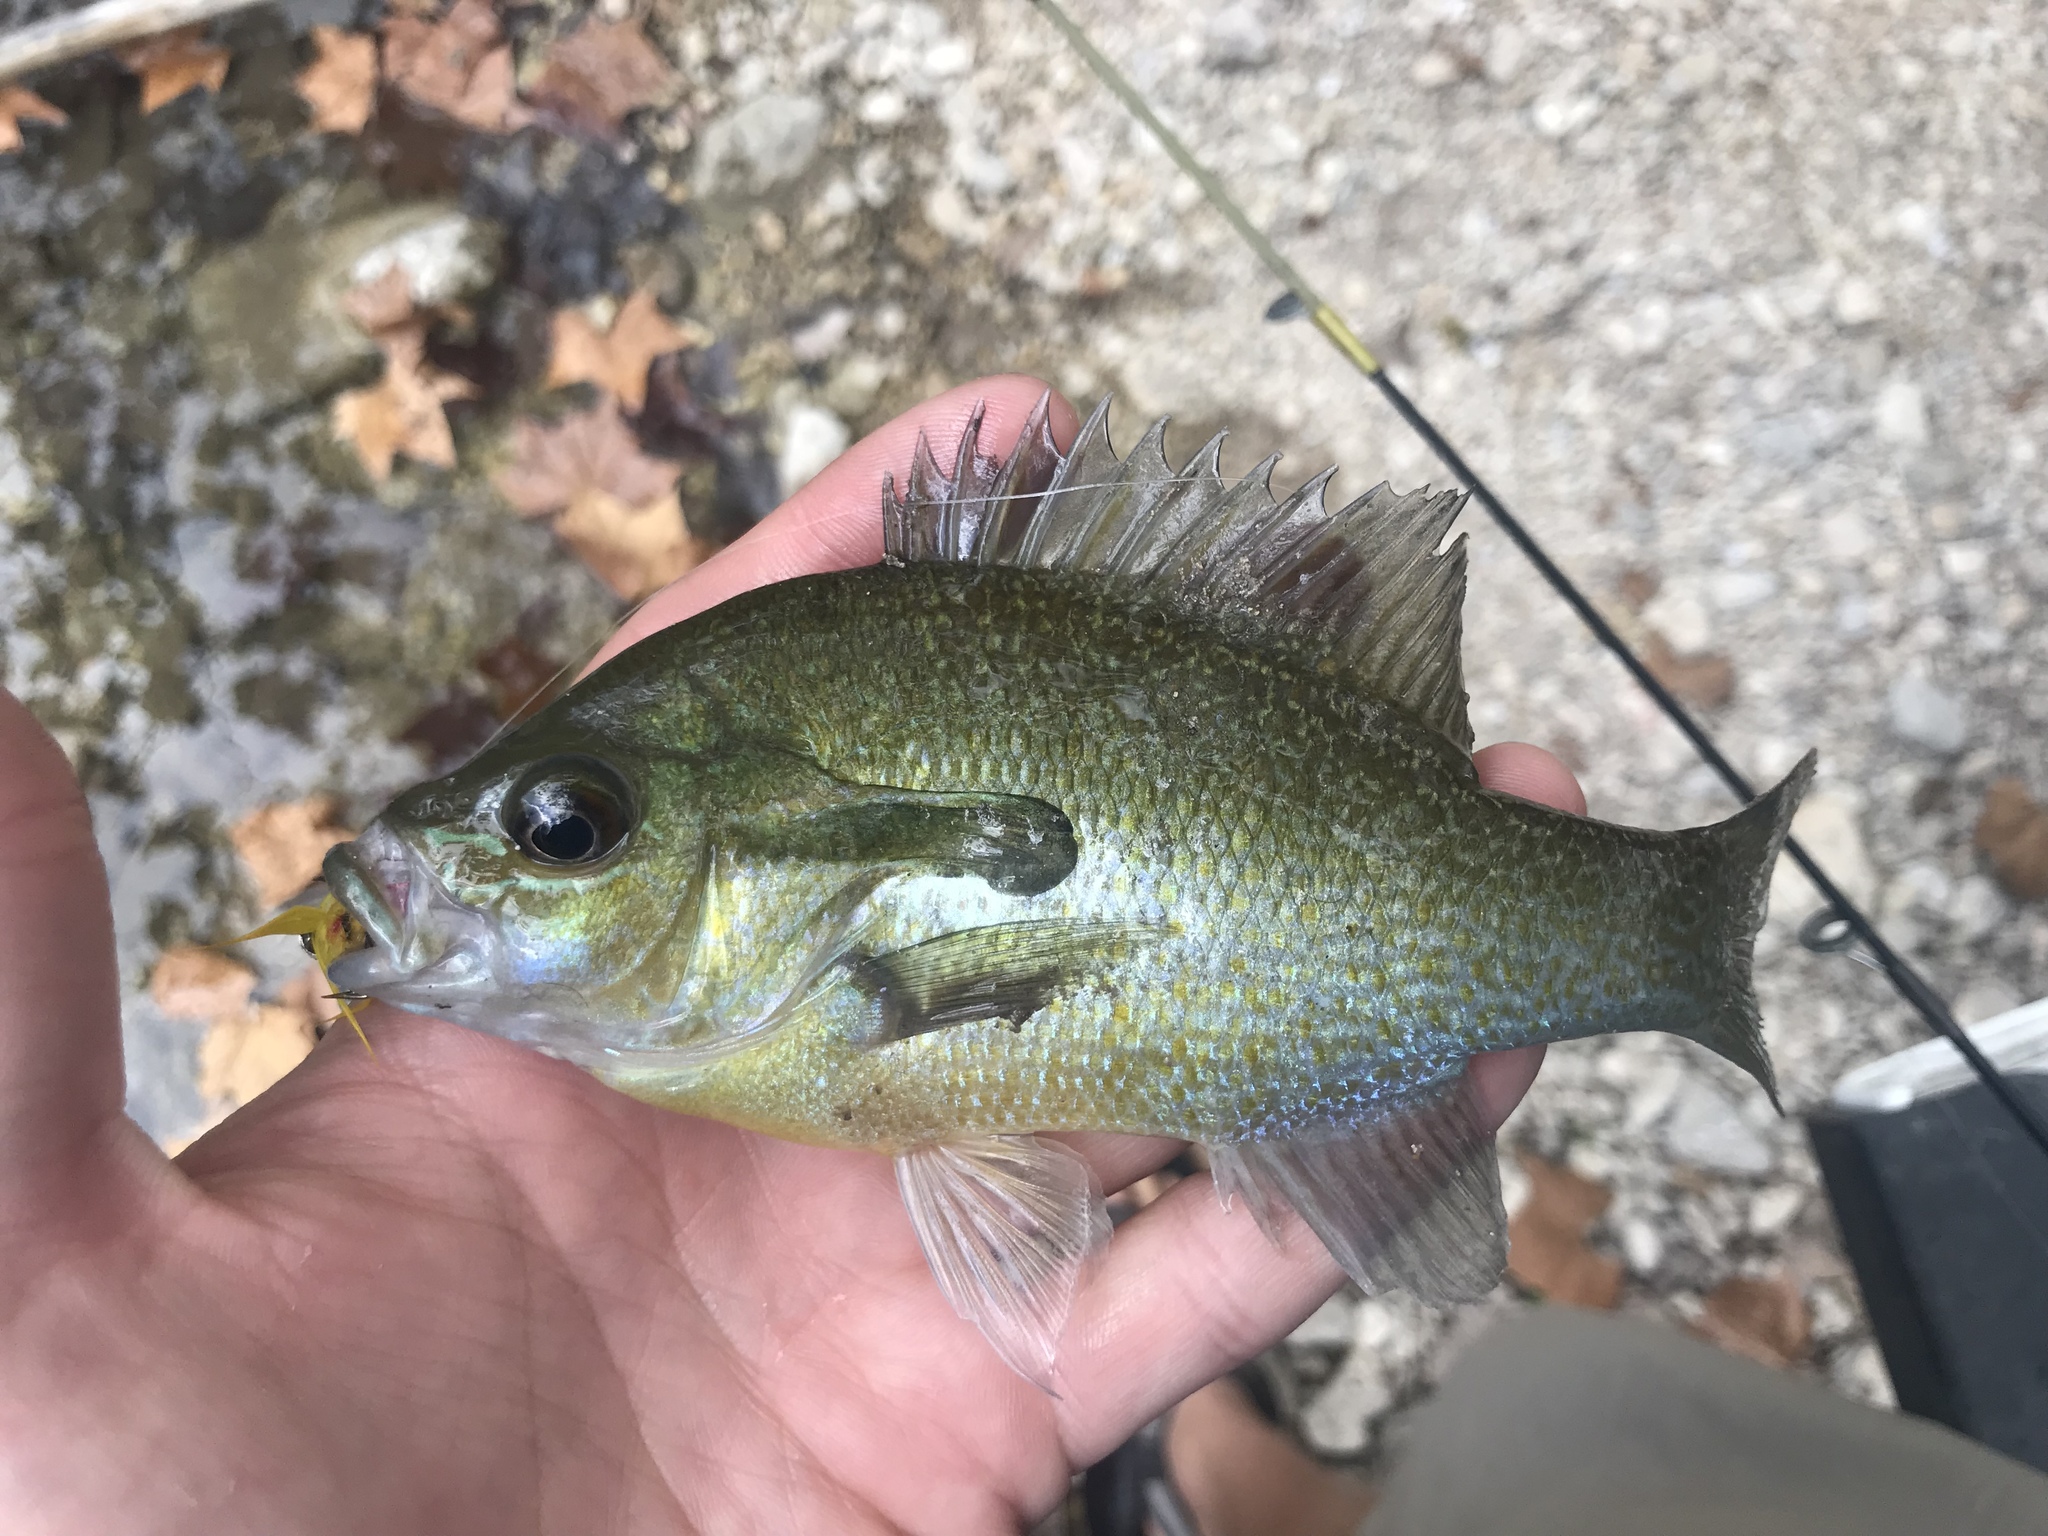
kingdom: Animalia
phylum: Chordata
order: Perciformes
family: Centrarchidae
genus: Lepomis
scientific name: Lepomis auritus
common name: Redbreast sunfish
